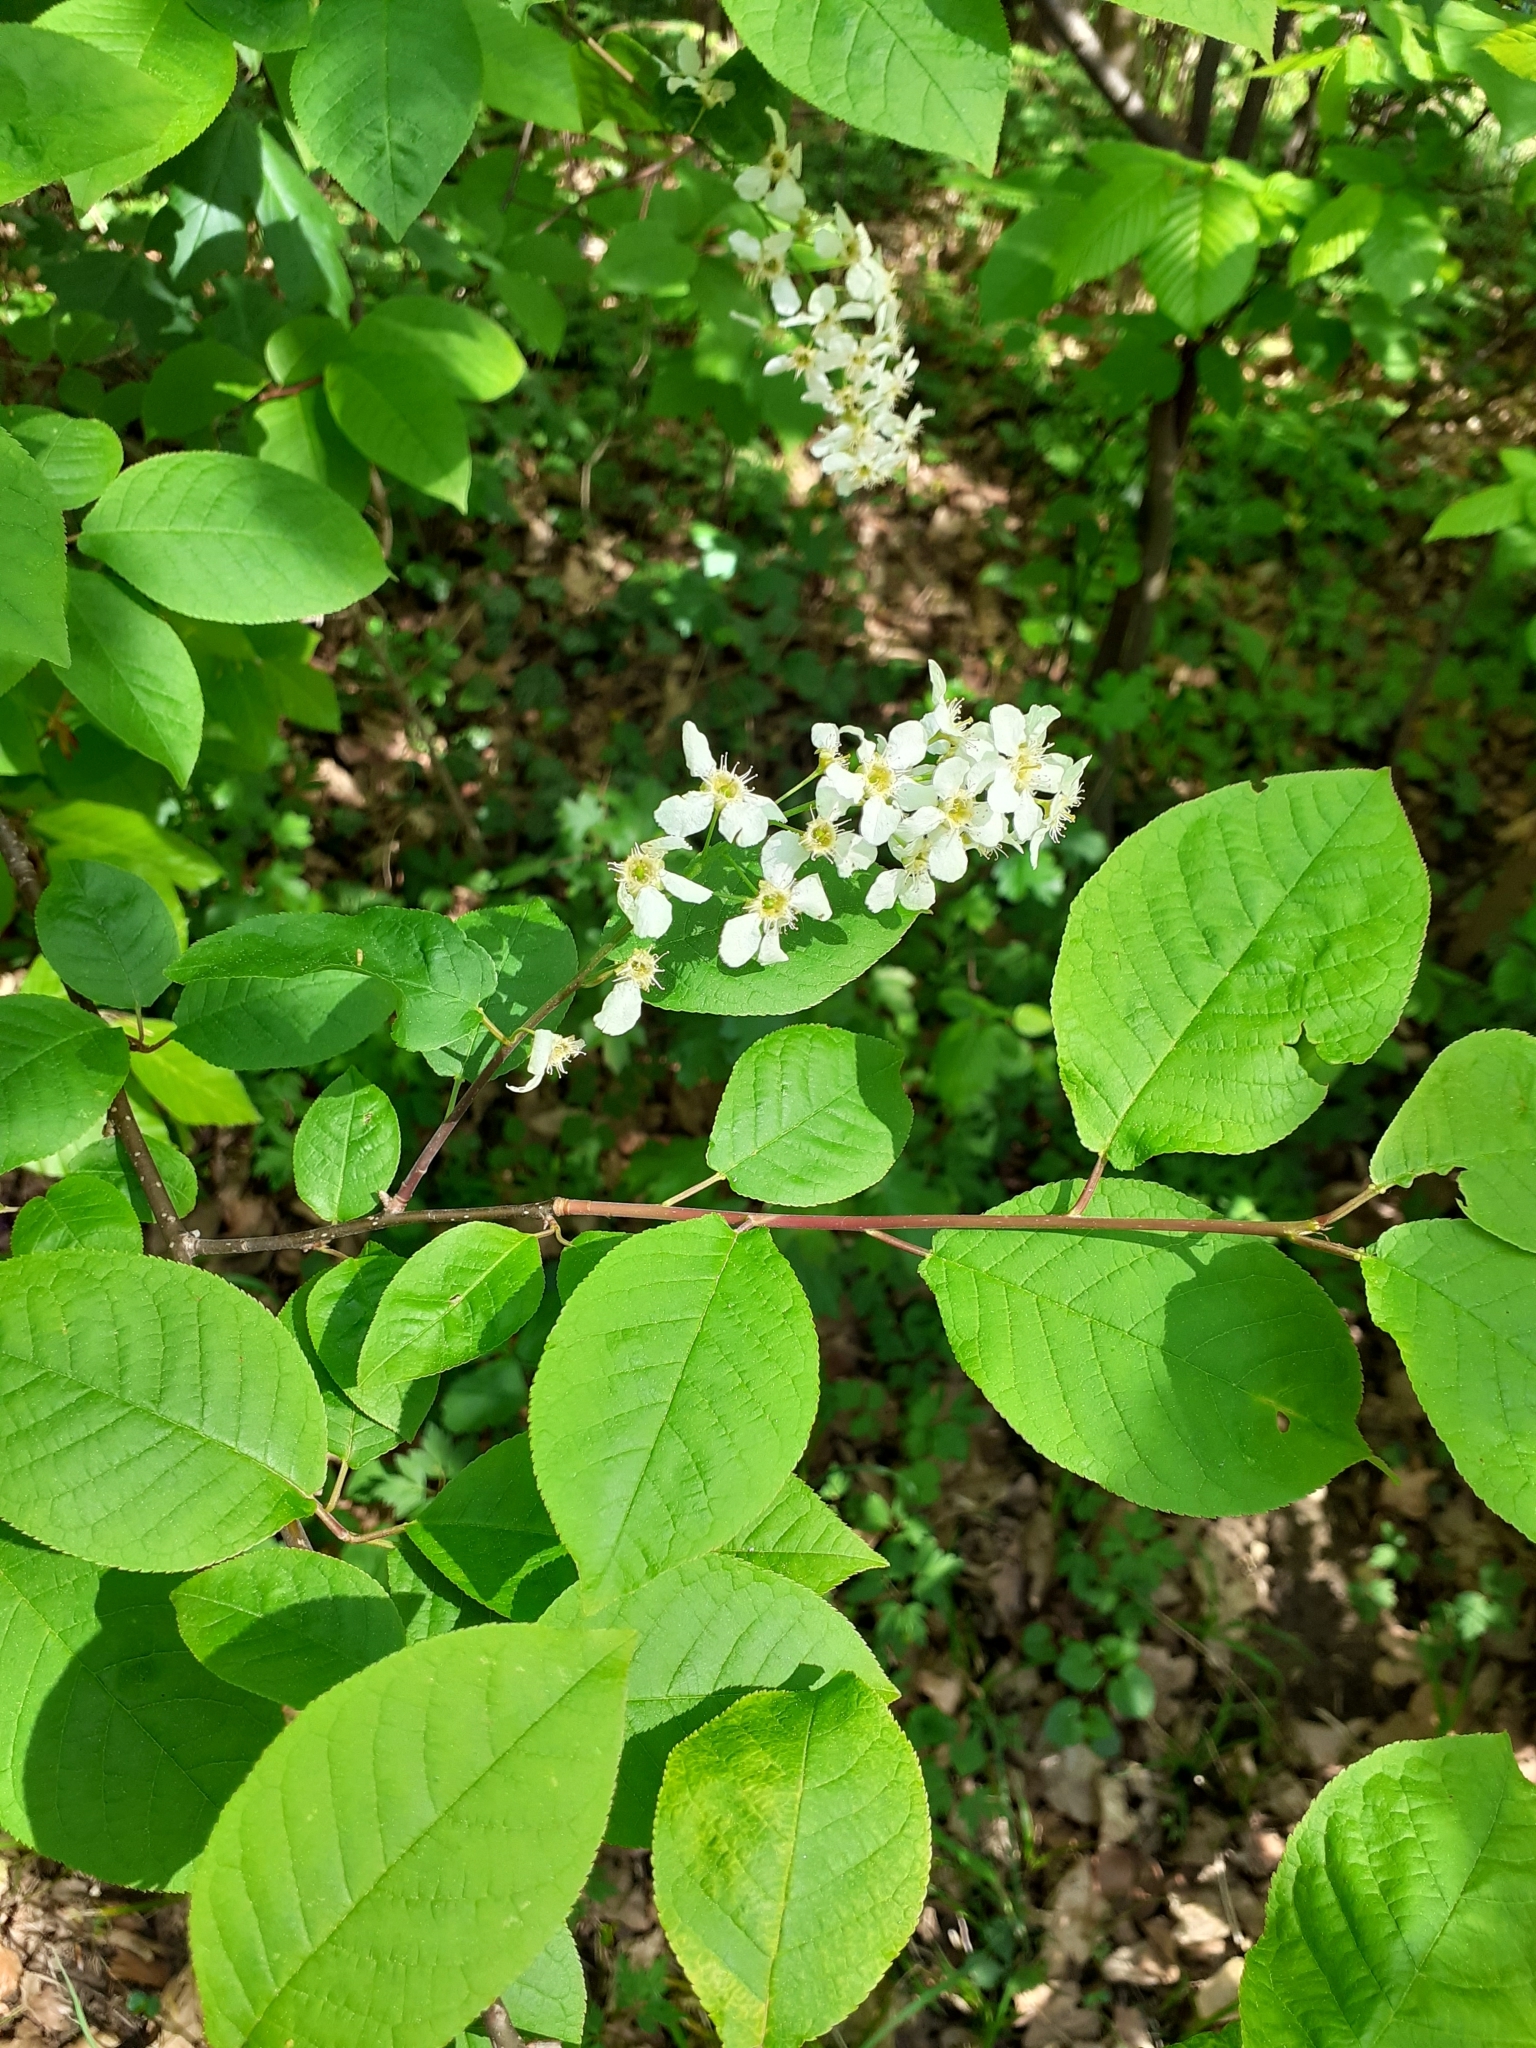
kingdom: Plantae
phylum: Tracheophyta
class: Magnoliopsida
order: Rosales
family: Rosaceae
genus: Prunus
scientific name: Prunus padus
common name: Bird cherry
